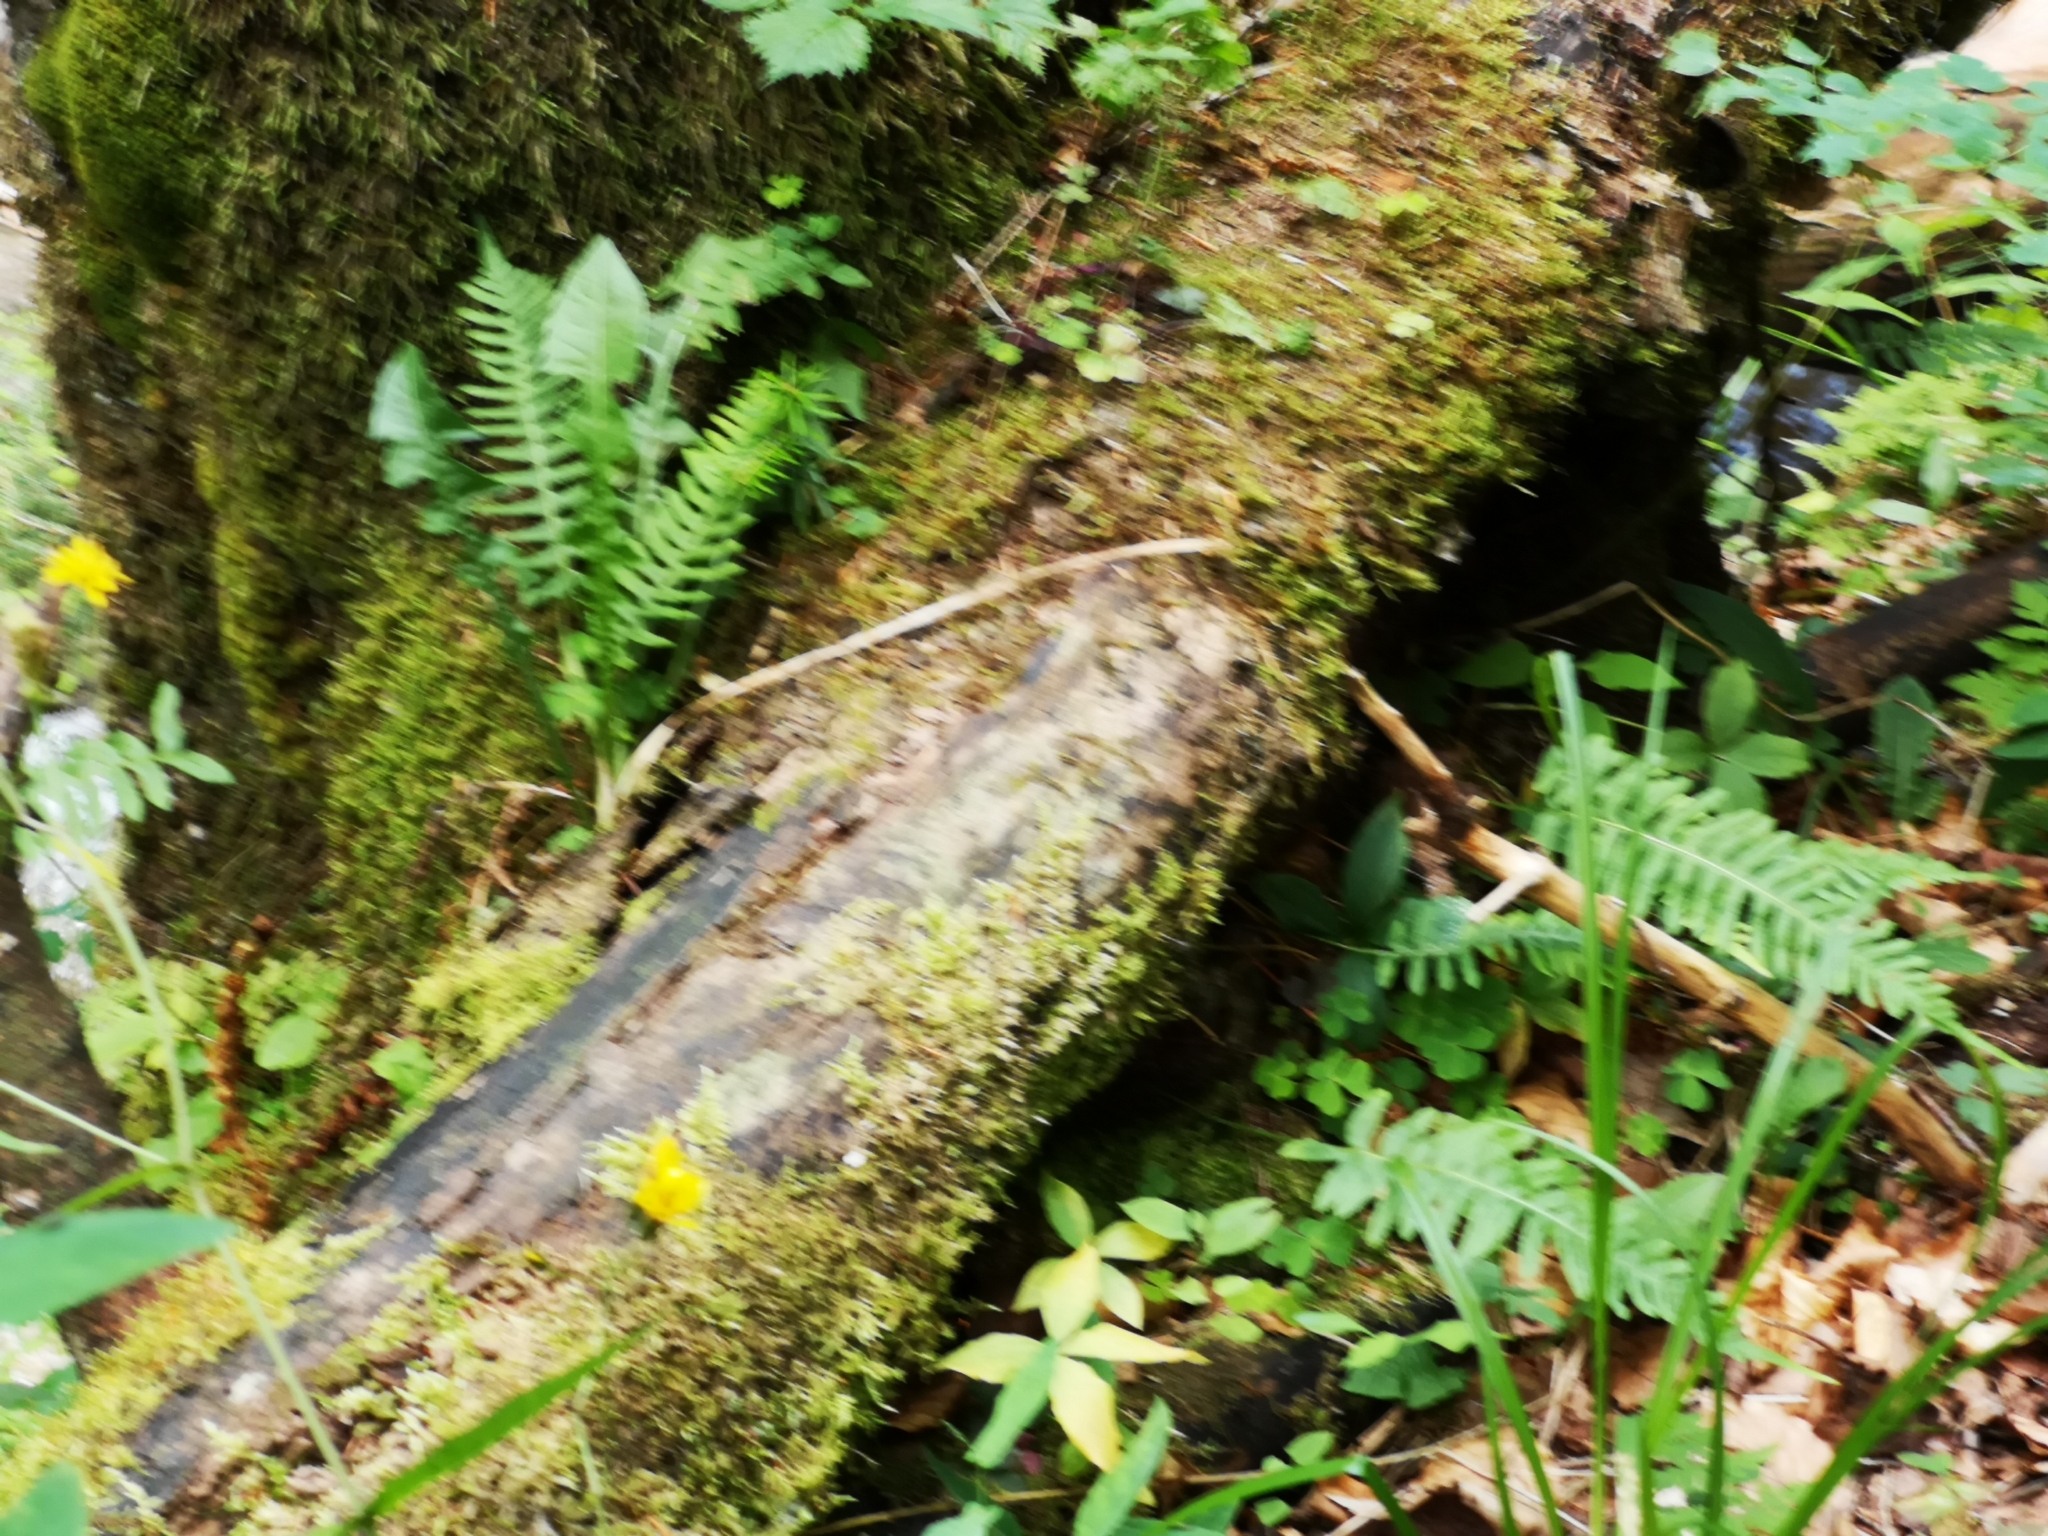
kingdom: Plantae
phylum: Tracheophyta
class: Polypodiopsida
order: Polypodiales
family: Polypodiaceae
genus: Polypodium
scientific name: Polypodium vulgare
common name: Common polypody
